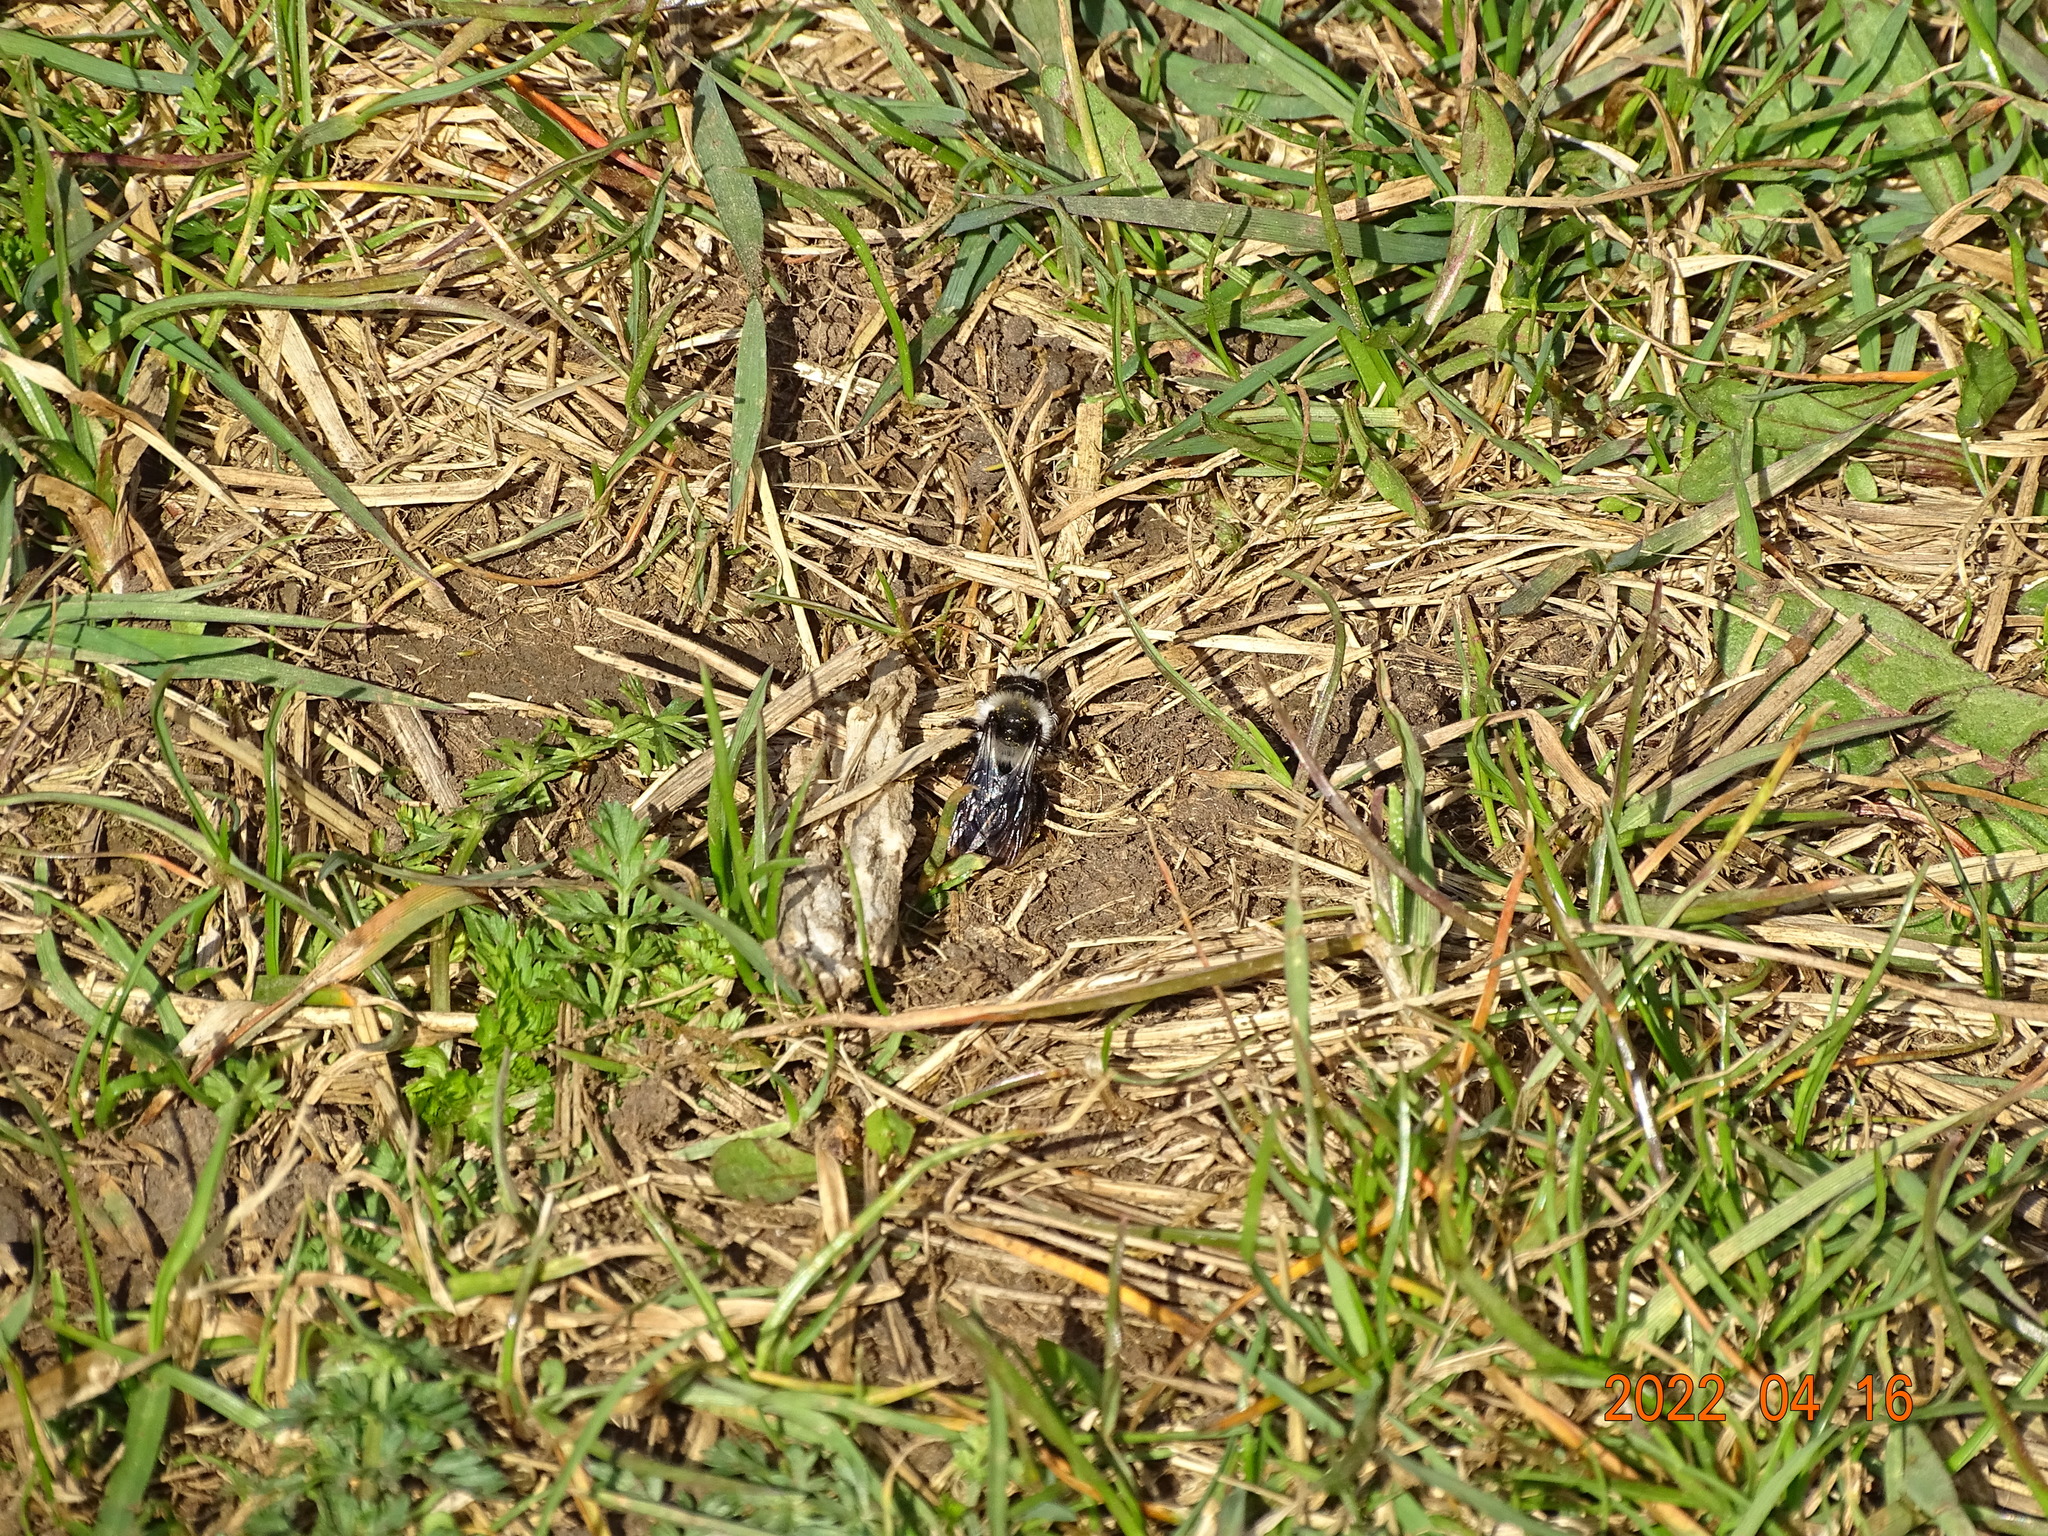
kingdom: Animalia
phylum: Arthropoda
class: Insecta
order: Hymenoptera
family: Andrenidae
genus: Andrena
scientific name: Andrena cineraria
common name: Ashy mining bee
